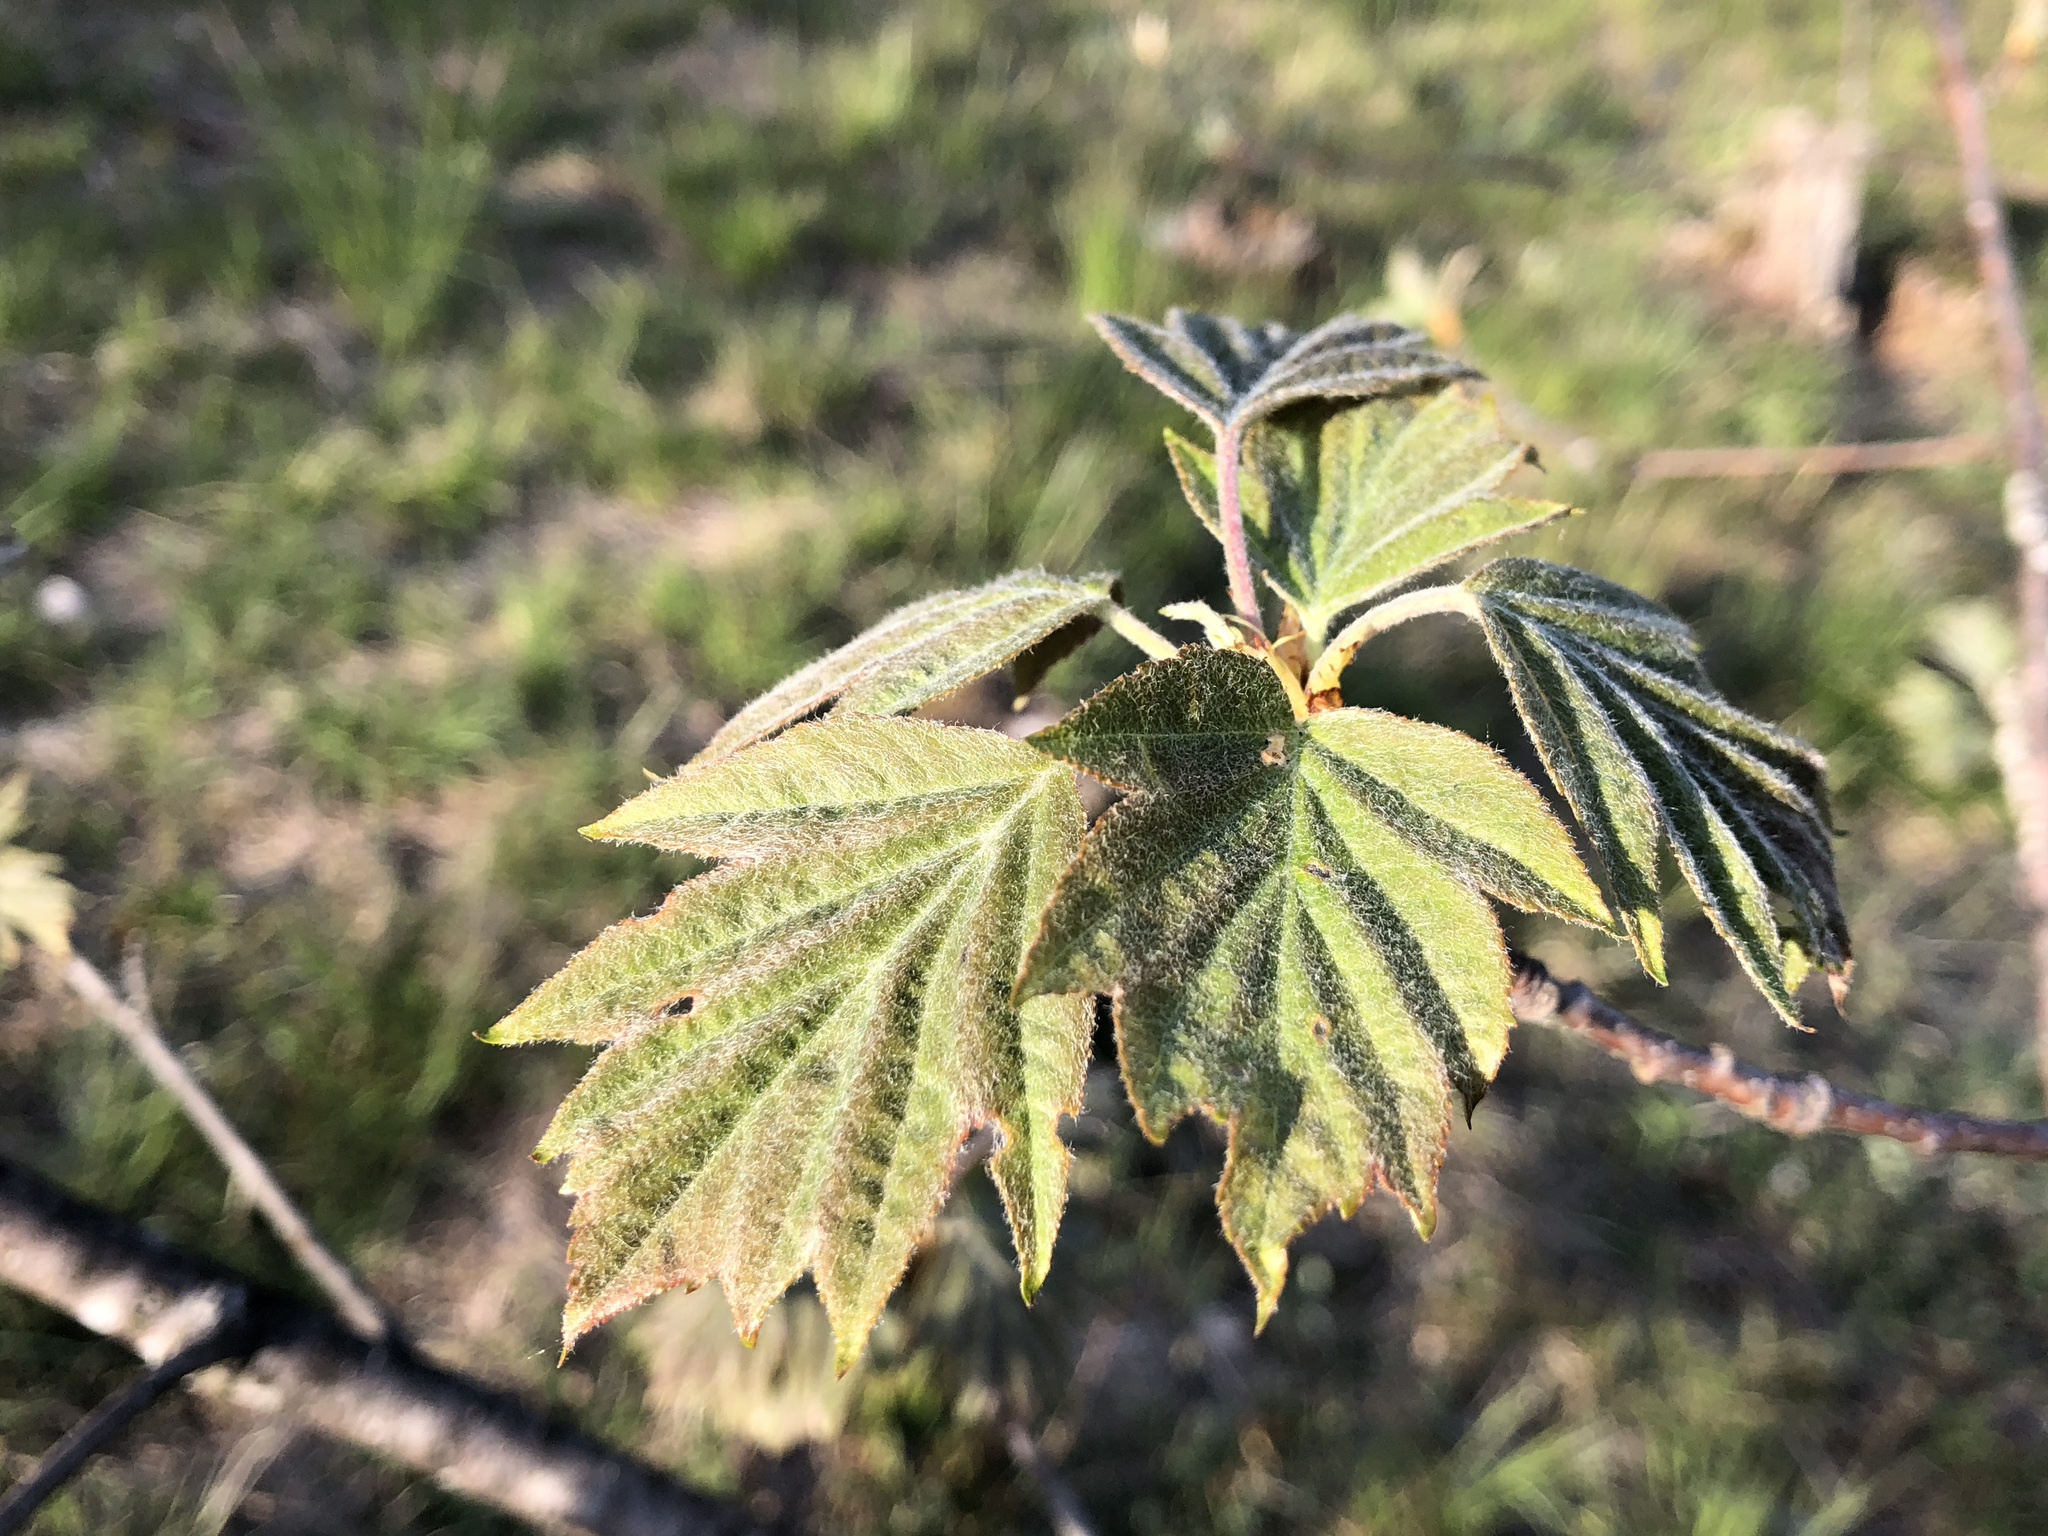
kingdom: Plantae
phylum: Tracheophyta
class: Magnoliopsida
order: Rosales
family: Rosaceae
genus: Torminalis
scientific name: Torminalis glaberrima
